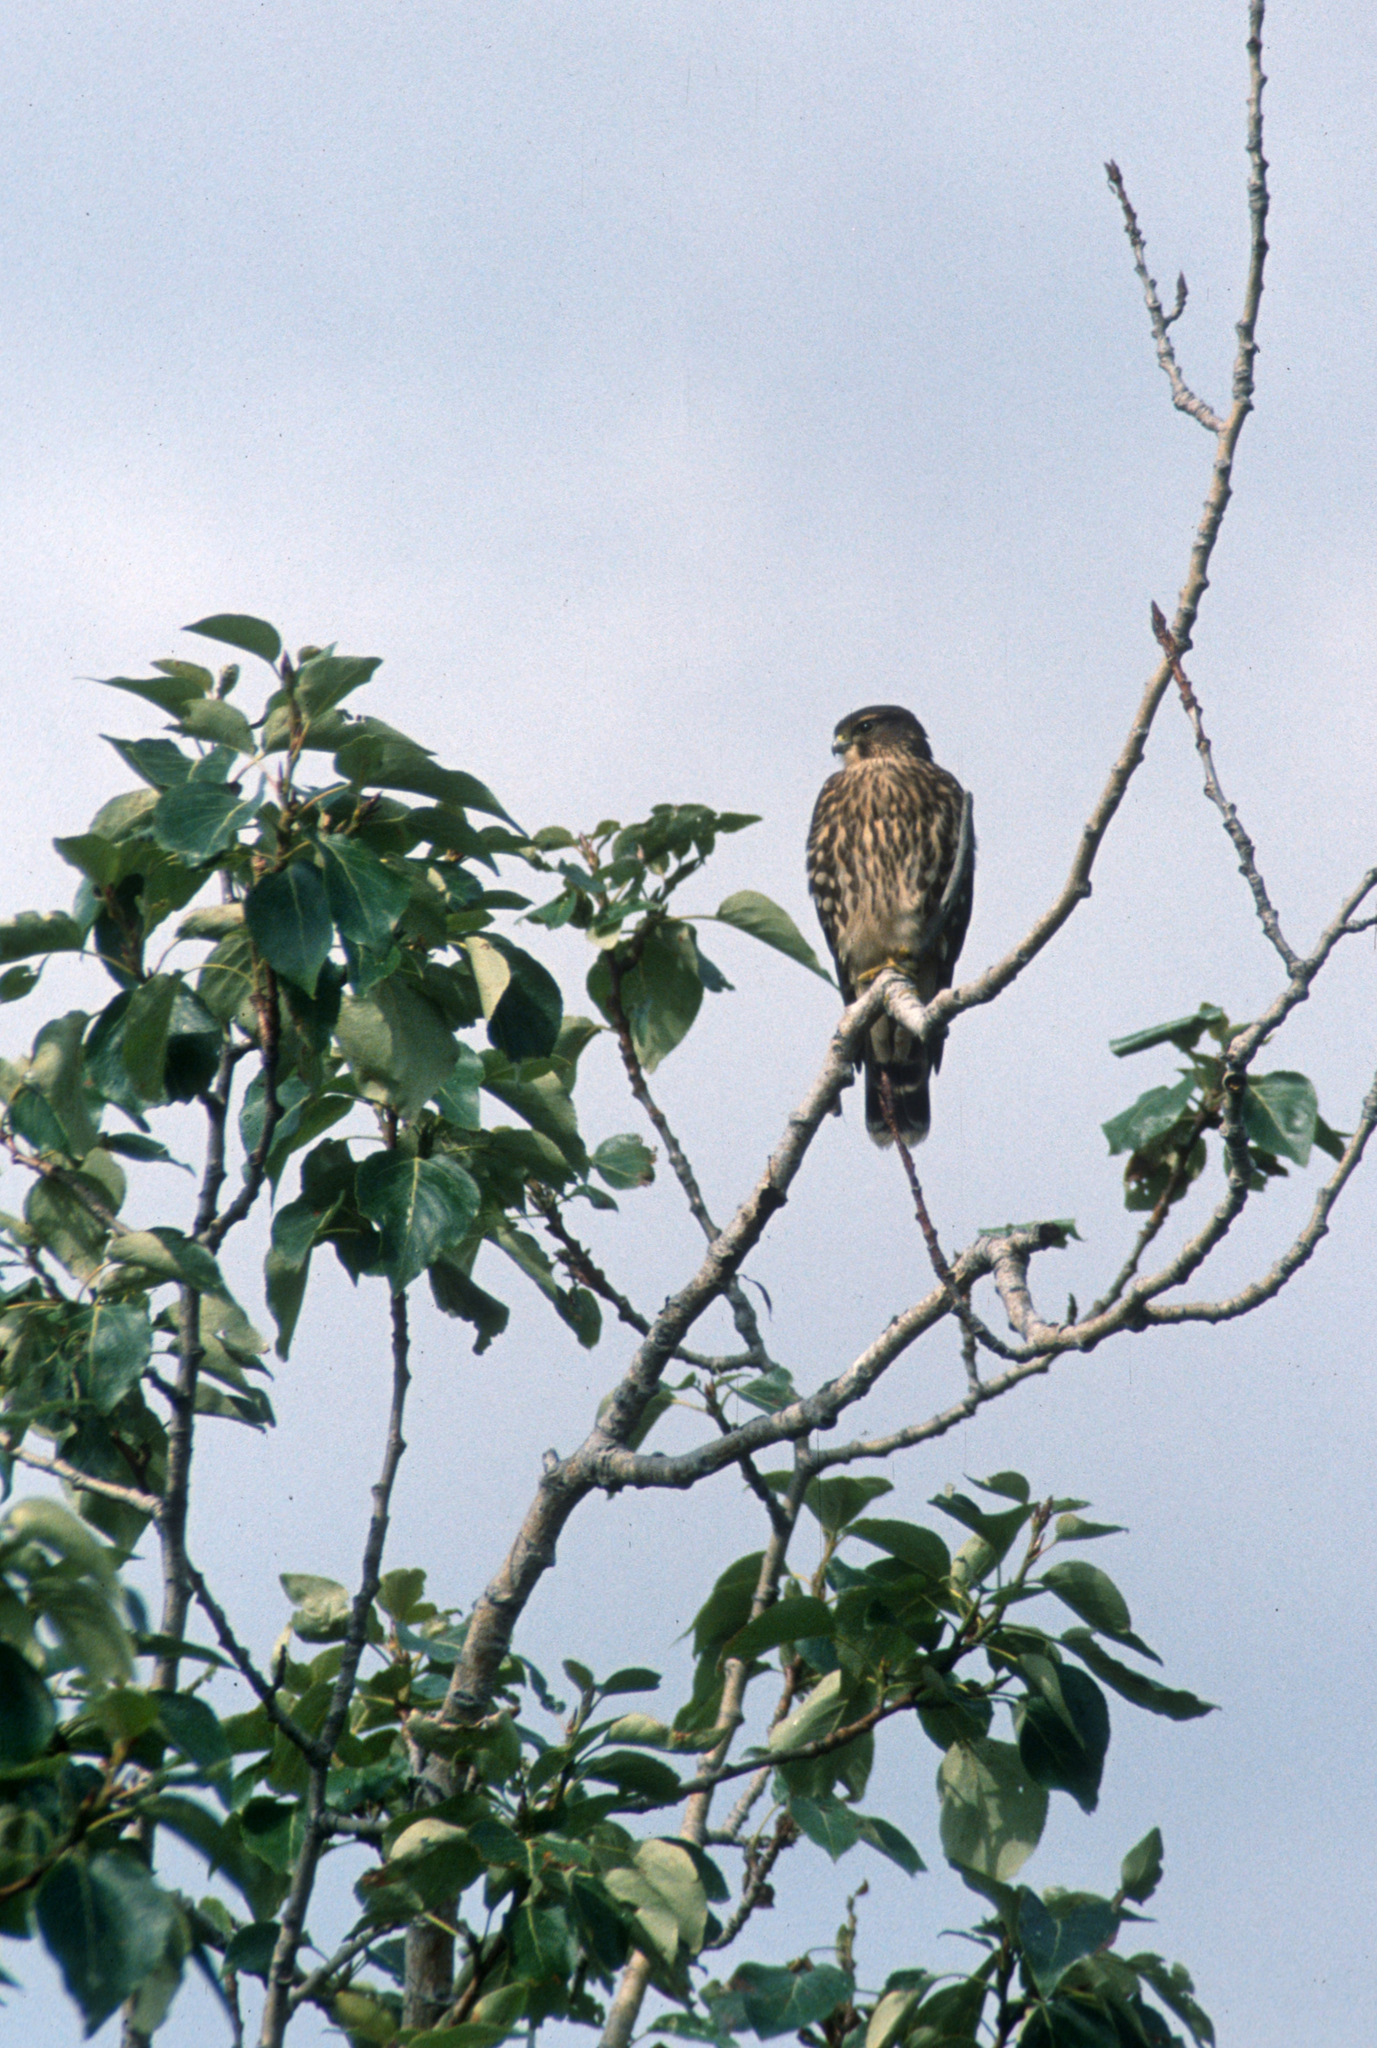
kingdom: Animalia
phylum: Chordata
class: Aves
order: Falconiformes
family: Falconidae
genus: Falco
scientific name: Falco columbarius
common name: Merlin
